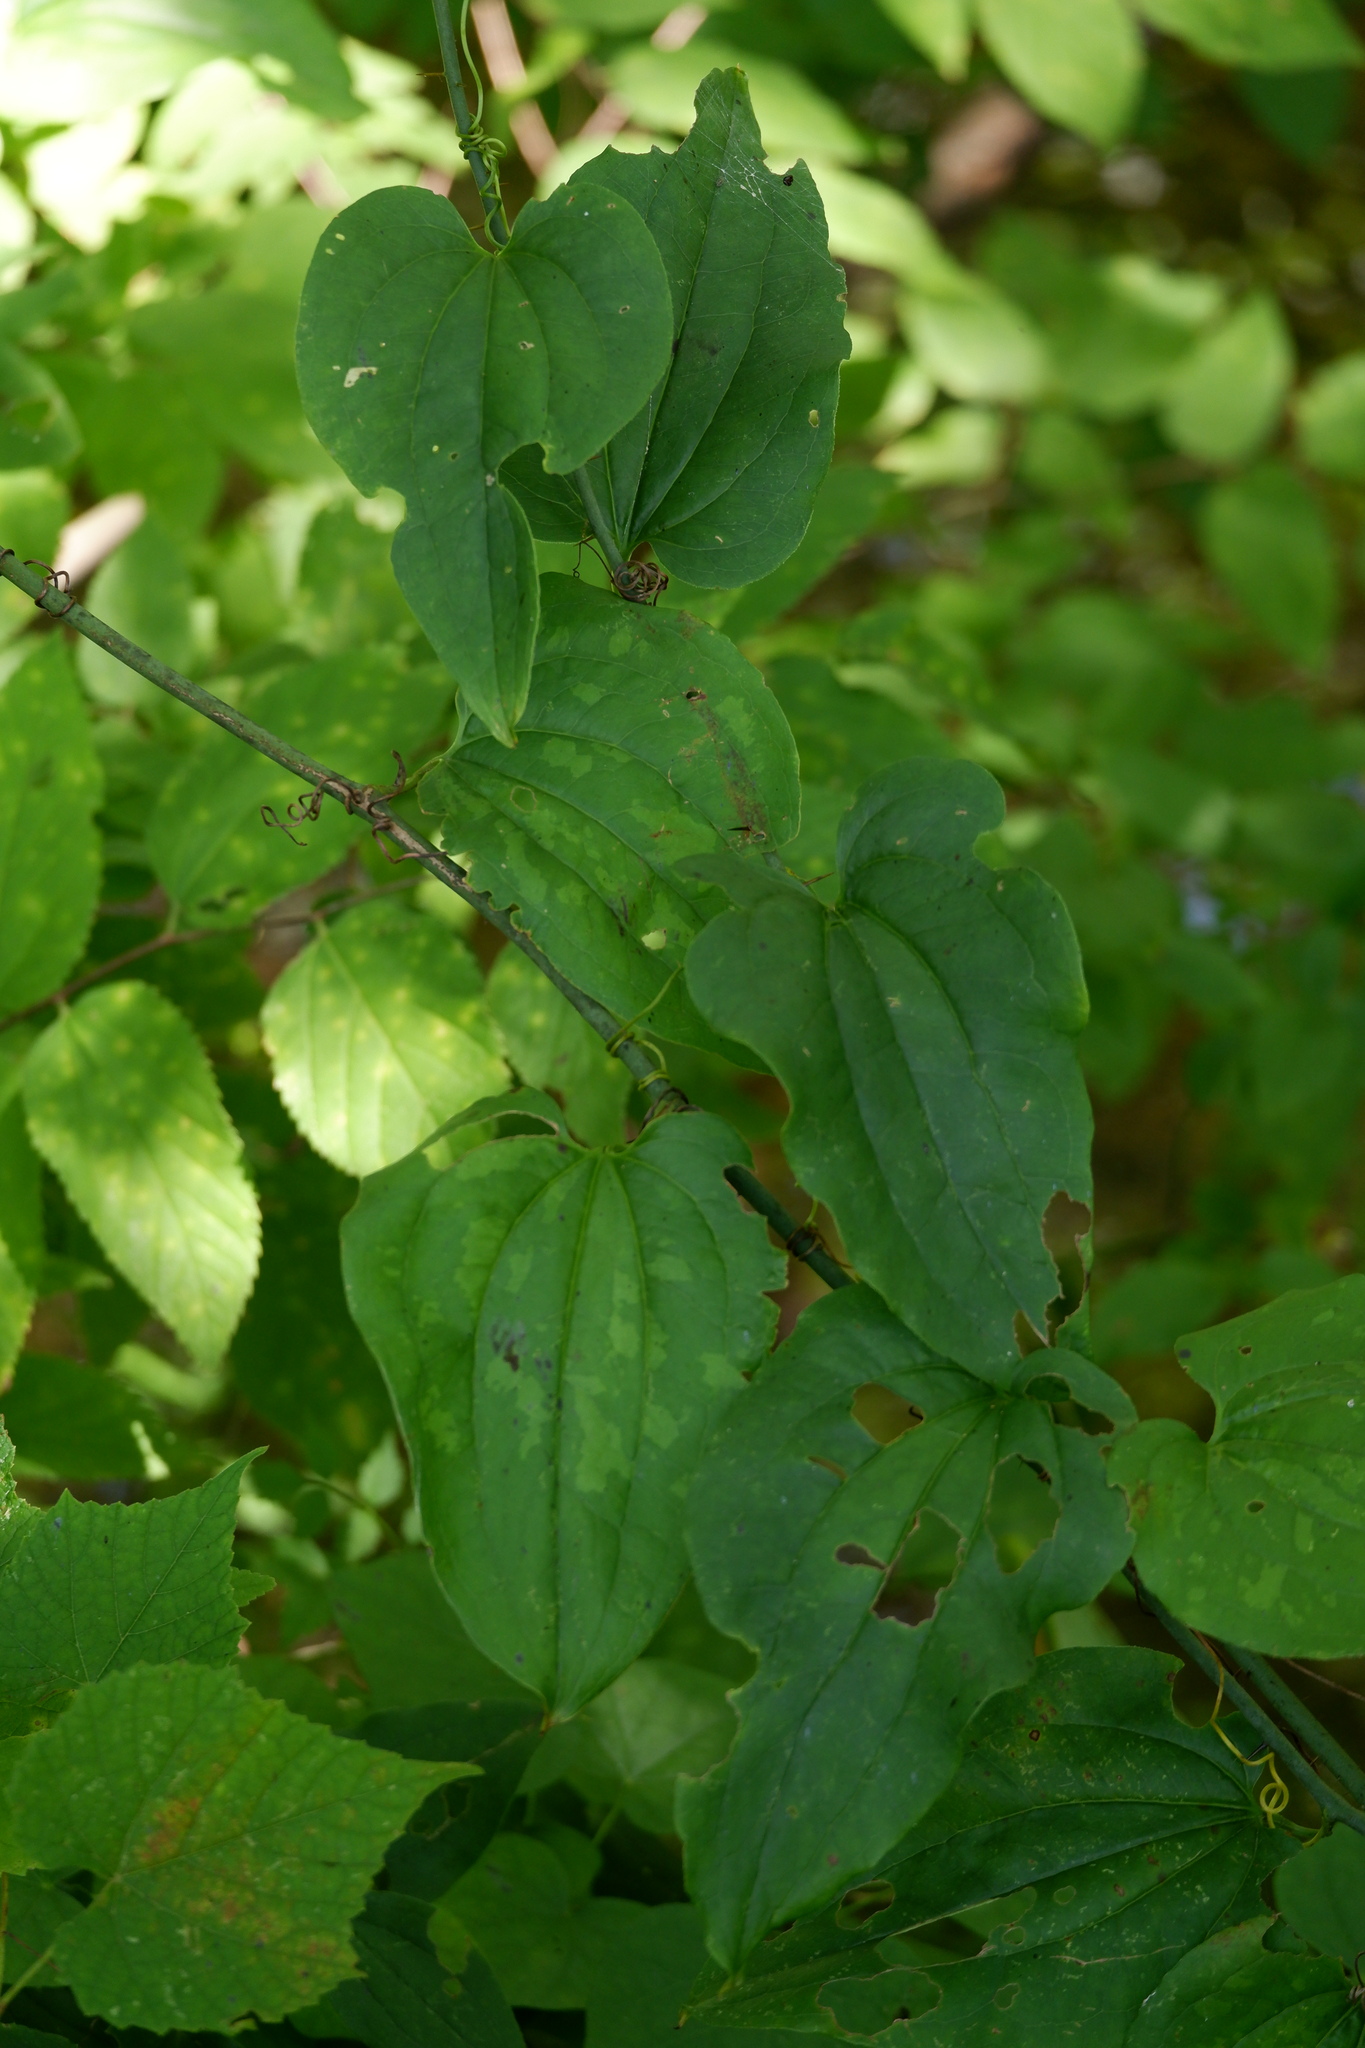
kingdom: Plantae
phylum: Tracheophyta
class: Liliopsida
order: Liliales
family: Smilacaceae
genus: Smilax
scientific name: Smilax tamnoides
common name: Hellfetter
